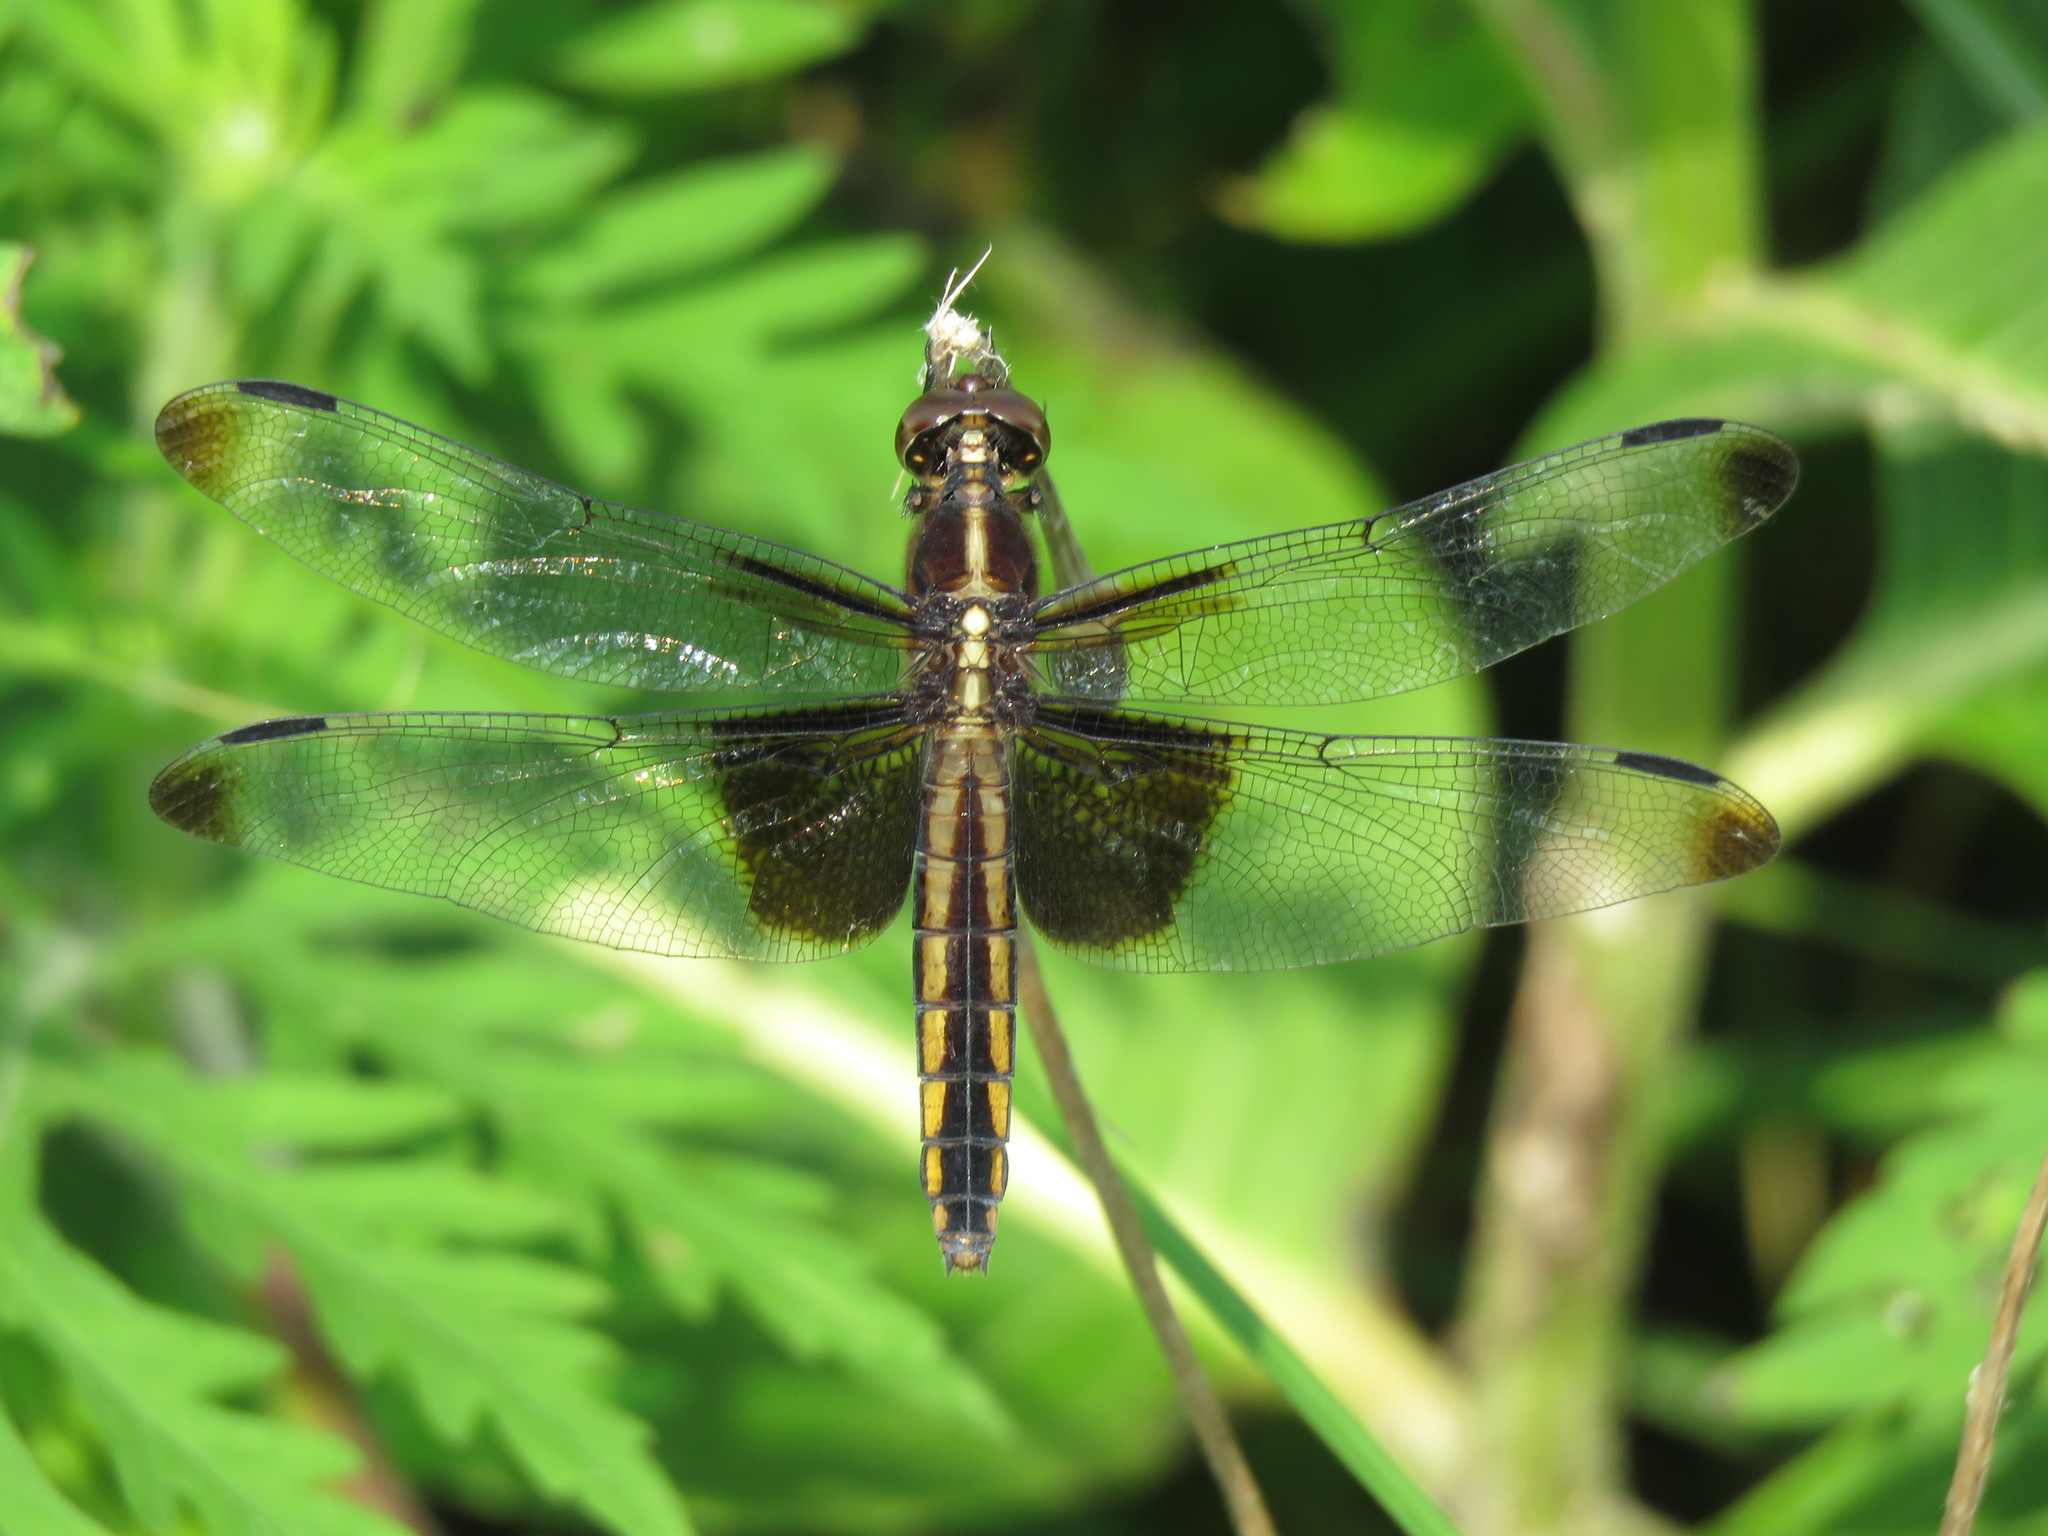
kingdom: Animalia
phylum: Arthropoda
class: Insecta
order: Odonata
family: Libellulidae
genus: Libellula
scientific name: Libellula luctuosa
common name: Widow skimmer
